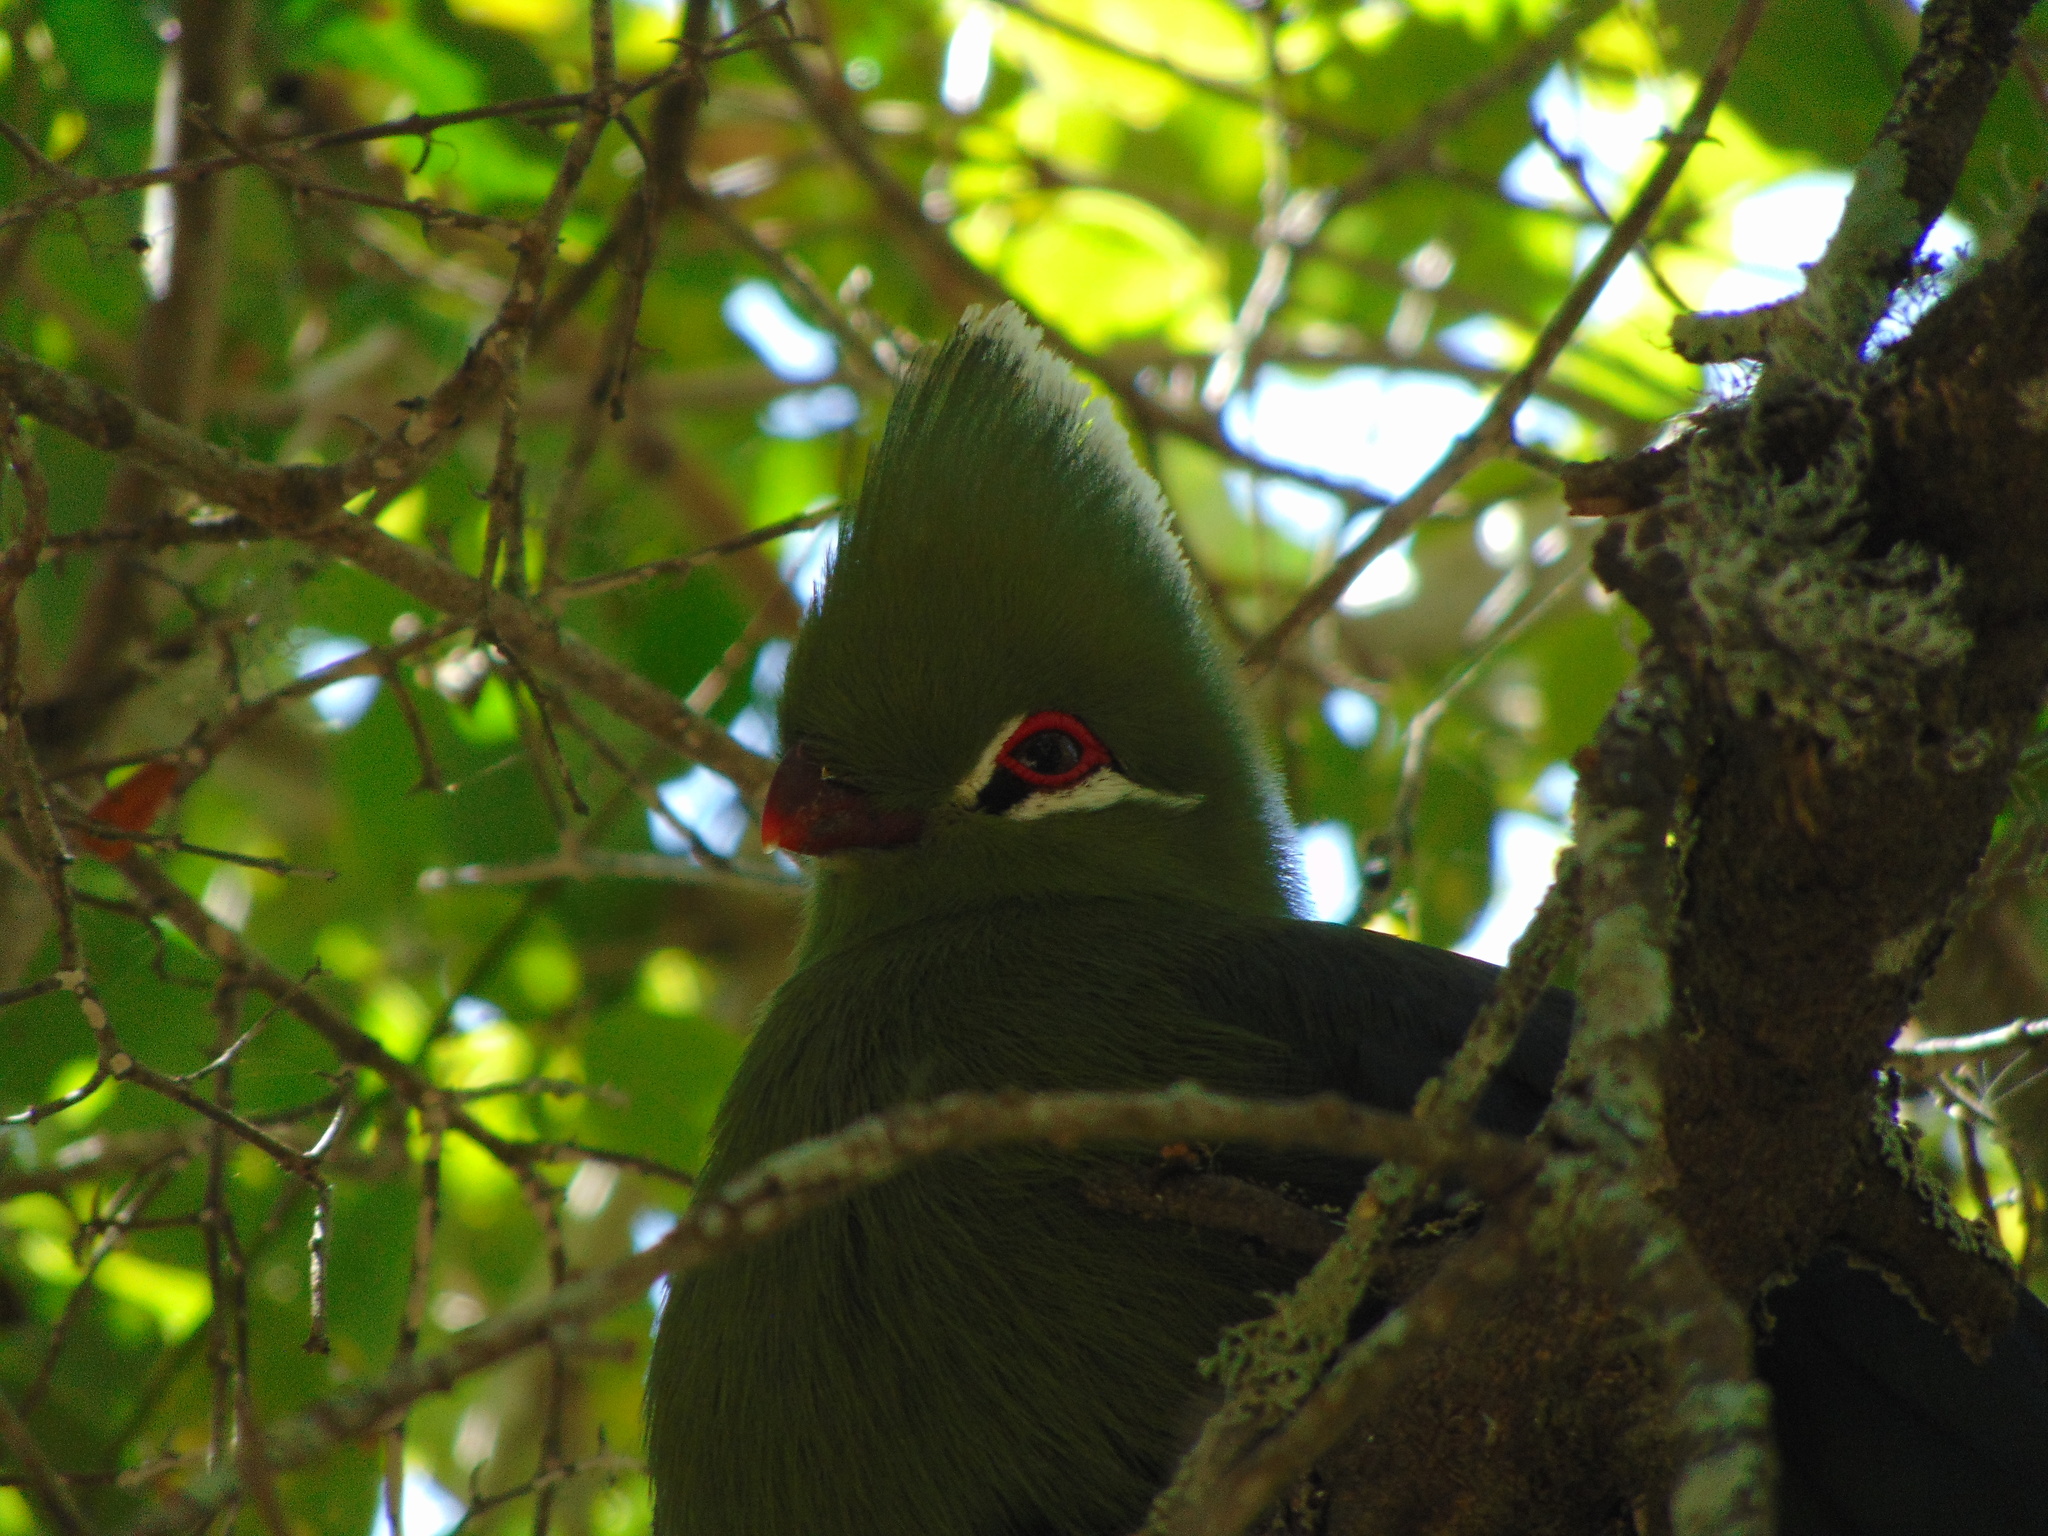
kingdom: Animalia
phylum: Chordata
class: Aves
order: Musophagiformes
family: Musophagidae
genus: Tauraco
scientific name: Tauraco corythaix
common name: Knysna turaco
